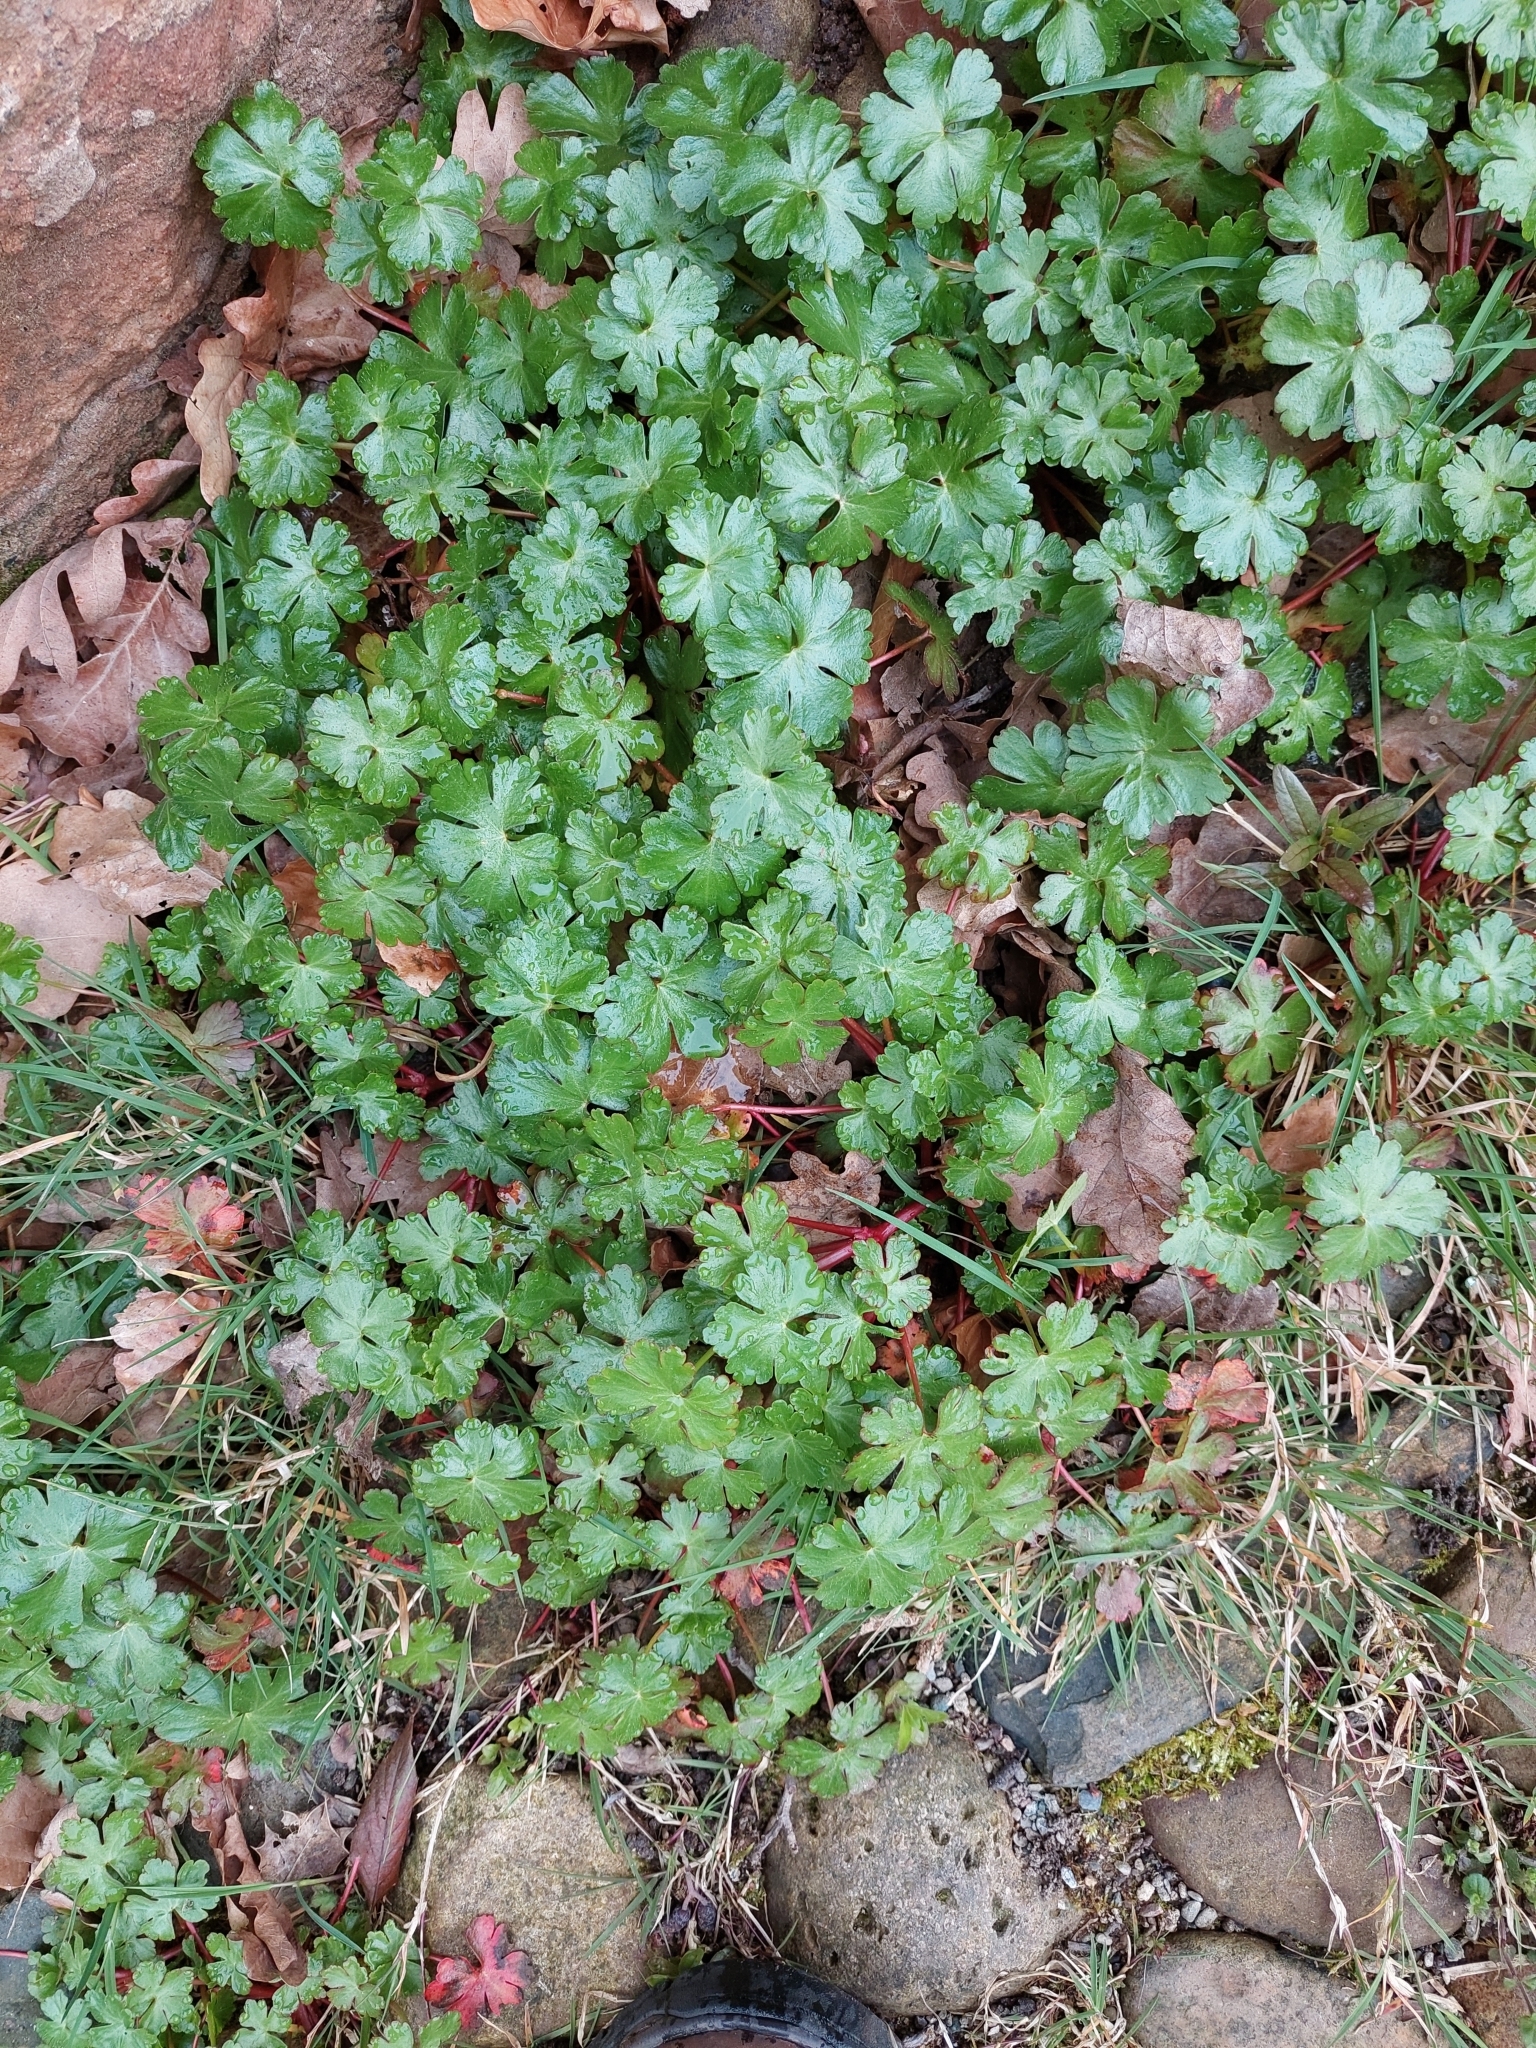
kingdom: Plantae
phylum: Tracheophyta
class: Magnoliopsida
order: Geraniales
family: Geraniaceae
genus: Geranium
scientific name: Geranium lucidum
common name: Shining crane's-bill
